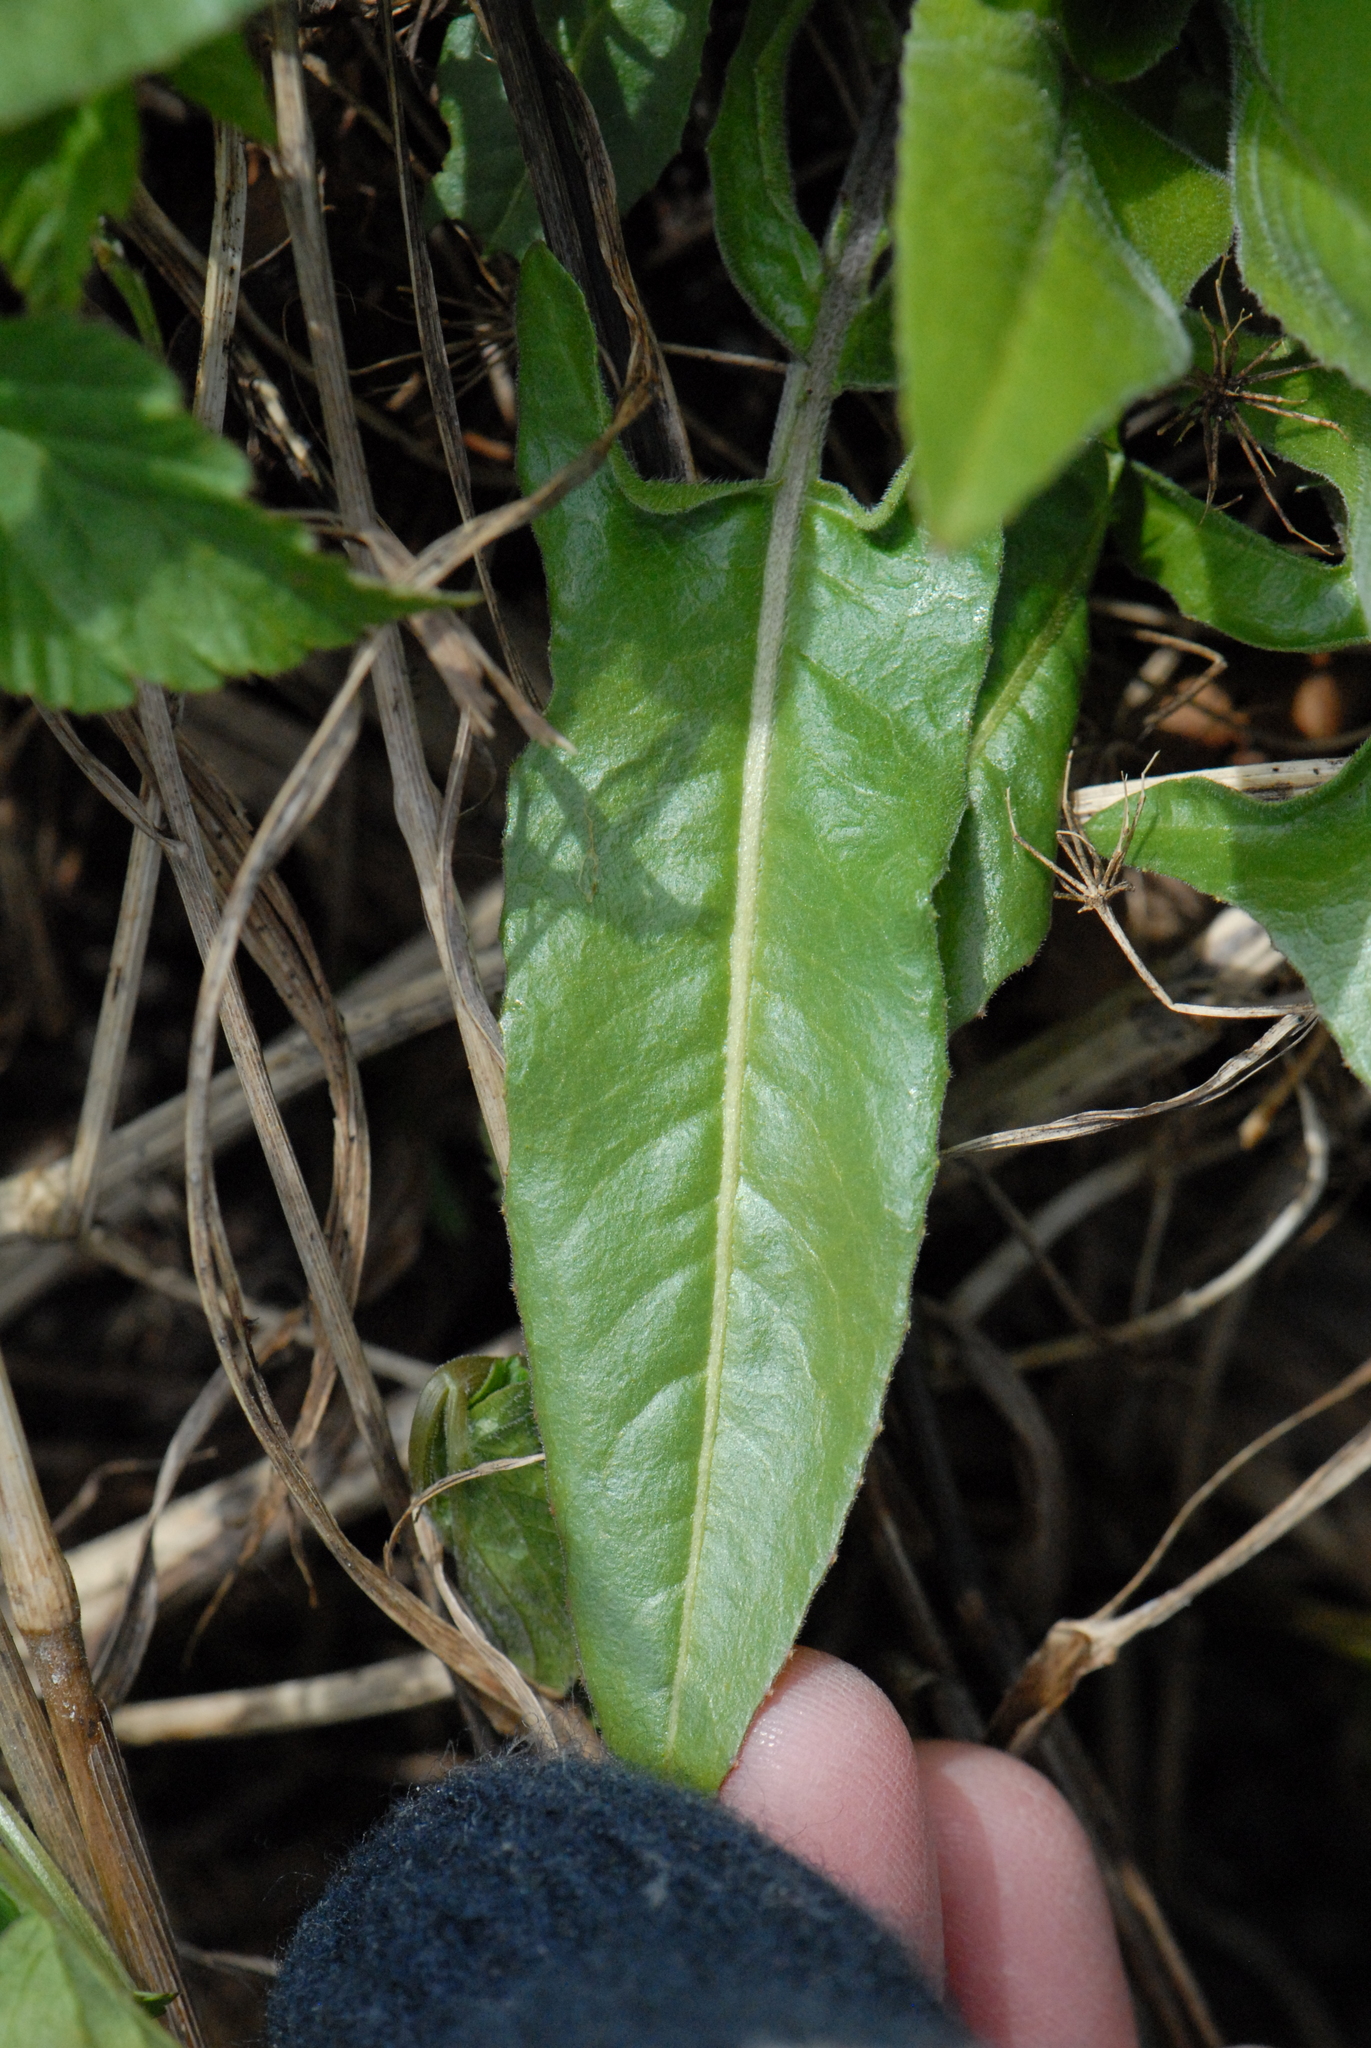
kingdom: Plantae
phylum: Tracheophyta
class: Magnoliopsida
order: Brassicales
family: Brassicaceae
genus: Bunias
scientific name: Bunias orientalis
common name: Warty-cabbage
